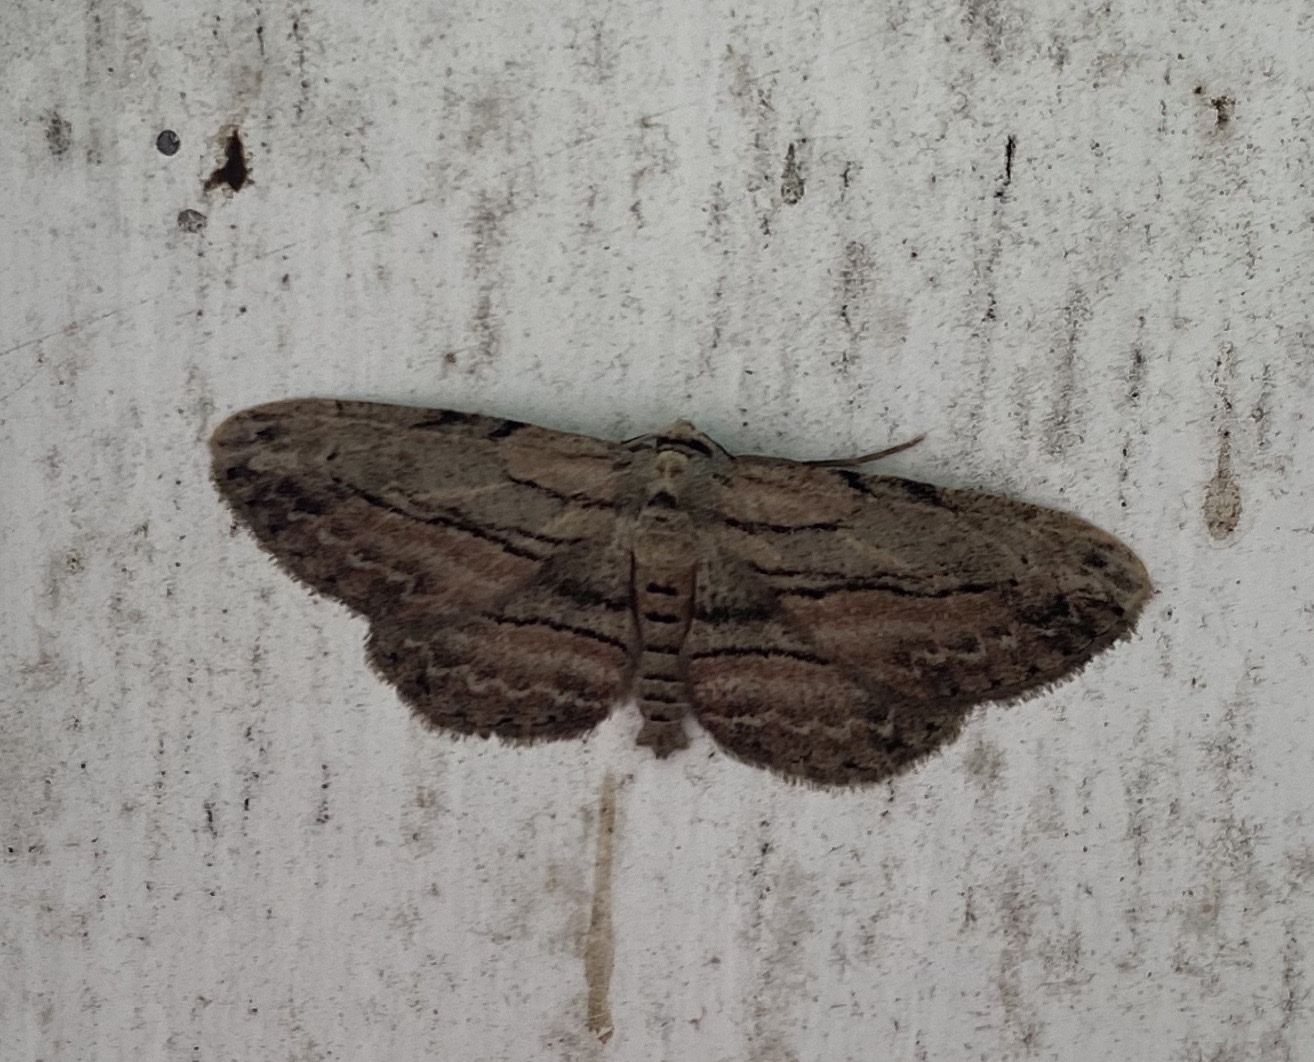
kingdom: Animalia
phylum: Arthropoda
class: Insecta
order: Lepidoptera
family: Geometridae
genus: Glena
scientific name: Glena plumosaria
